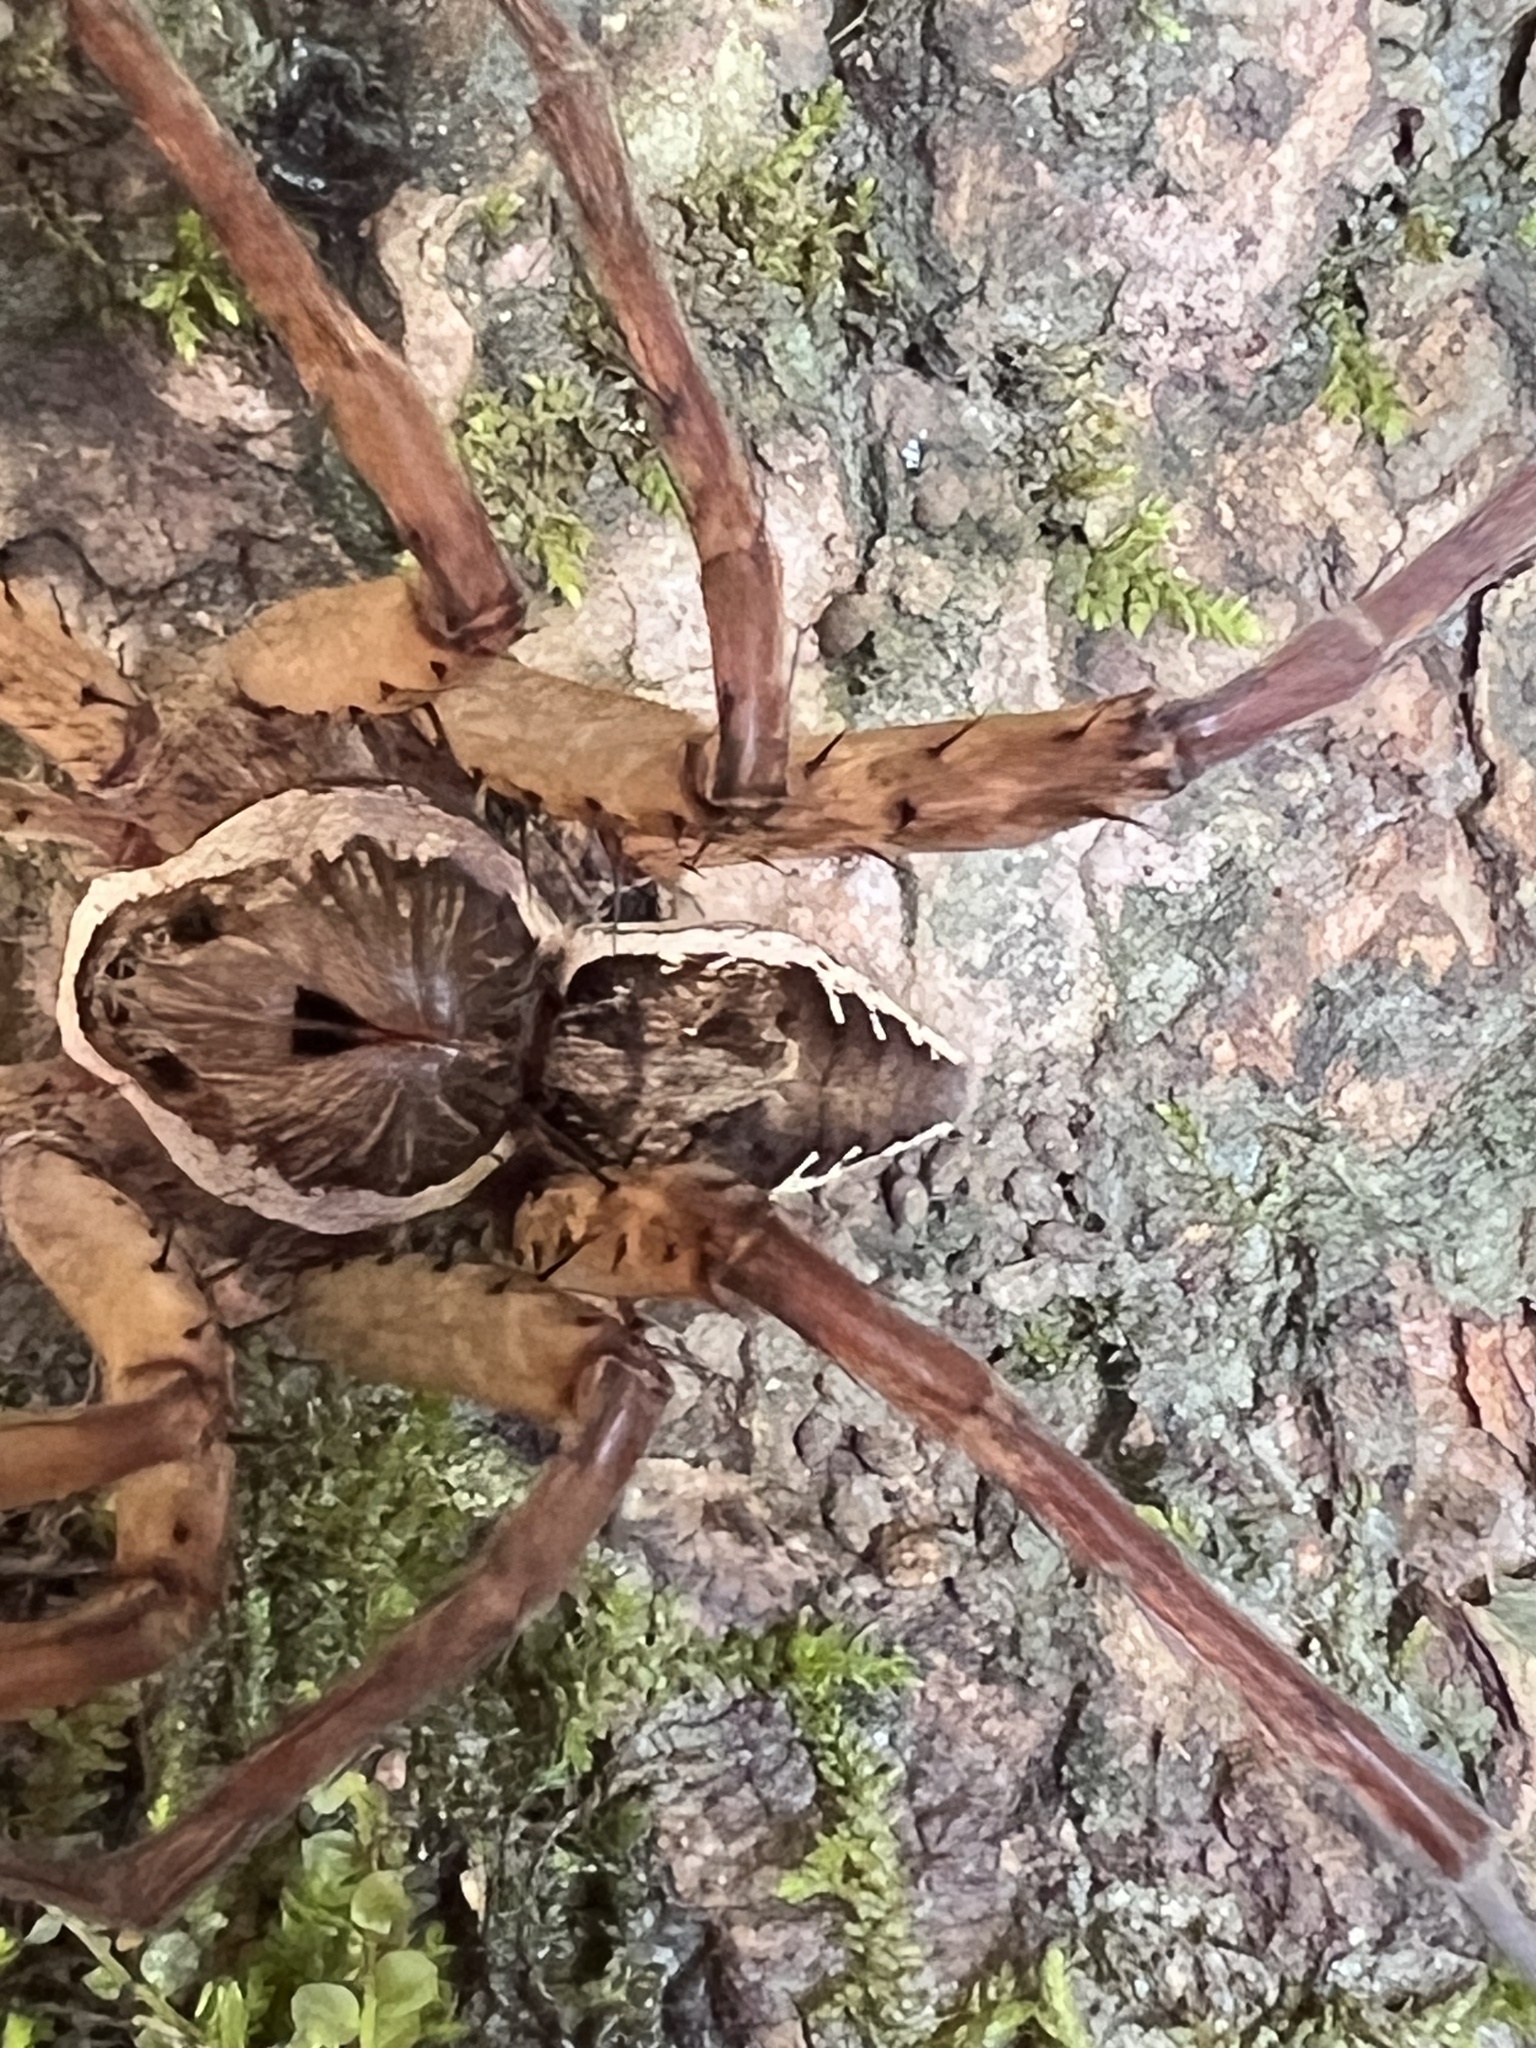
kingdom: Animalia
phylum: Arthropoda
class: Arachnida
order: Araneae
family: Pisauridae
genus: Dolomedes
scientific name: Dolomedes vittatus
